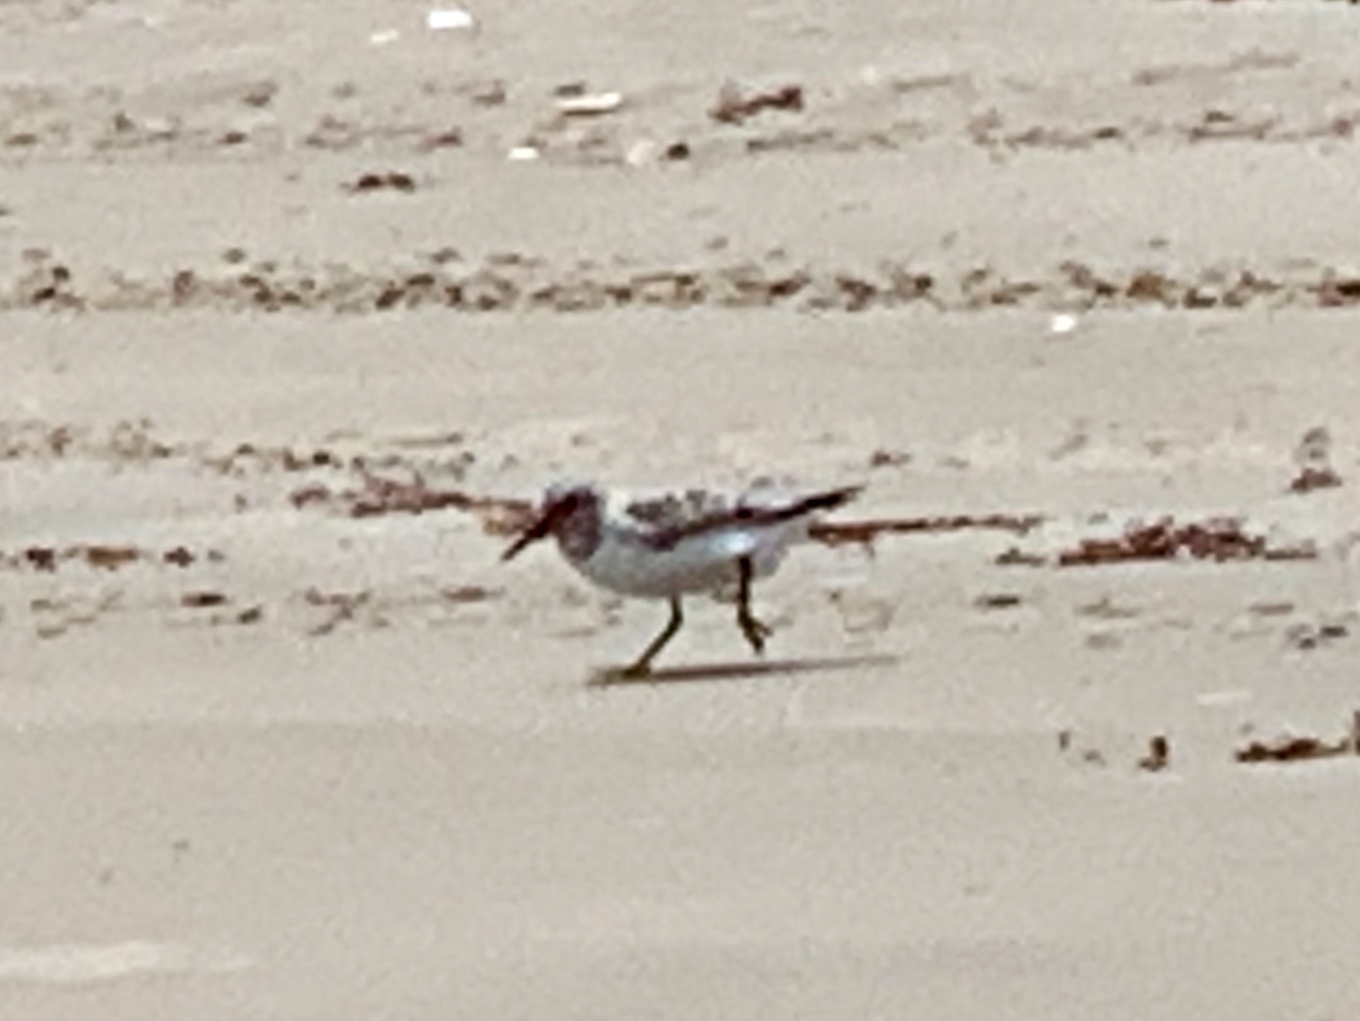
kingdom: Animalia
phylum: Chordata
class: Aves
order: Charadriiformes
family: Scolopacidae
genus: Calidris
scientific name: Calidris alba
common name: Sanderling
